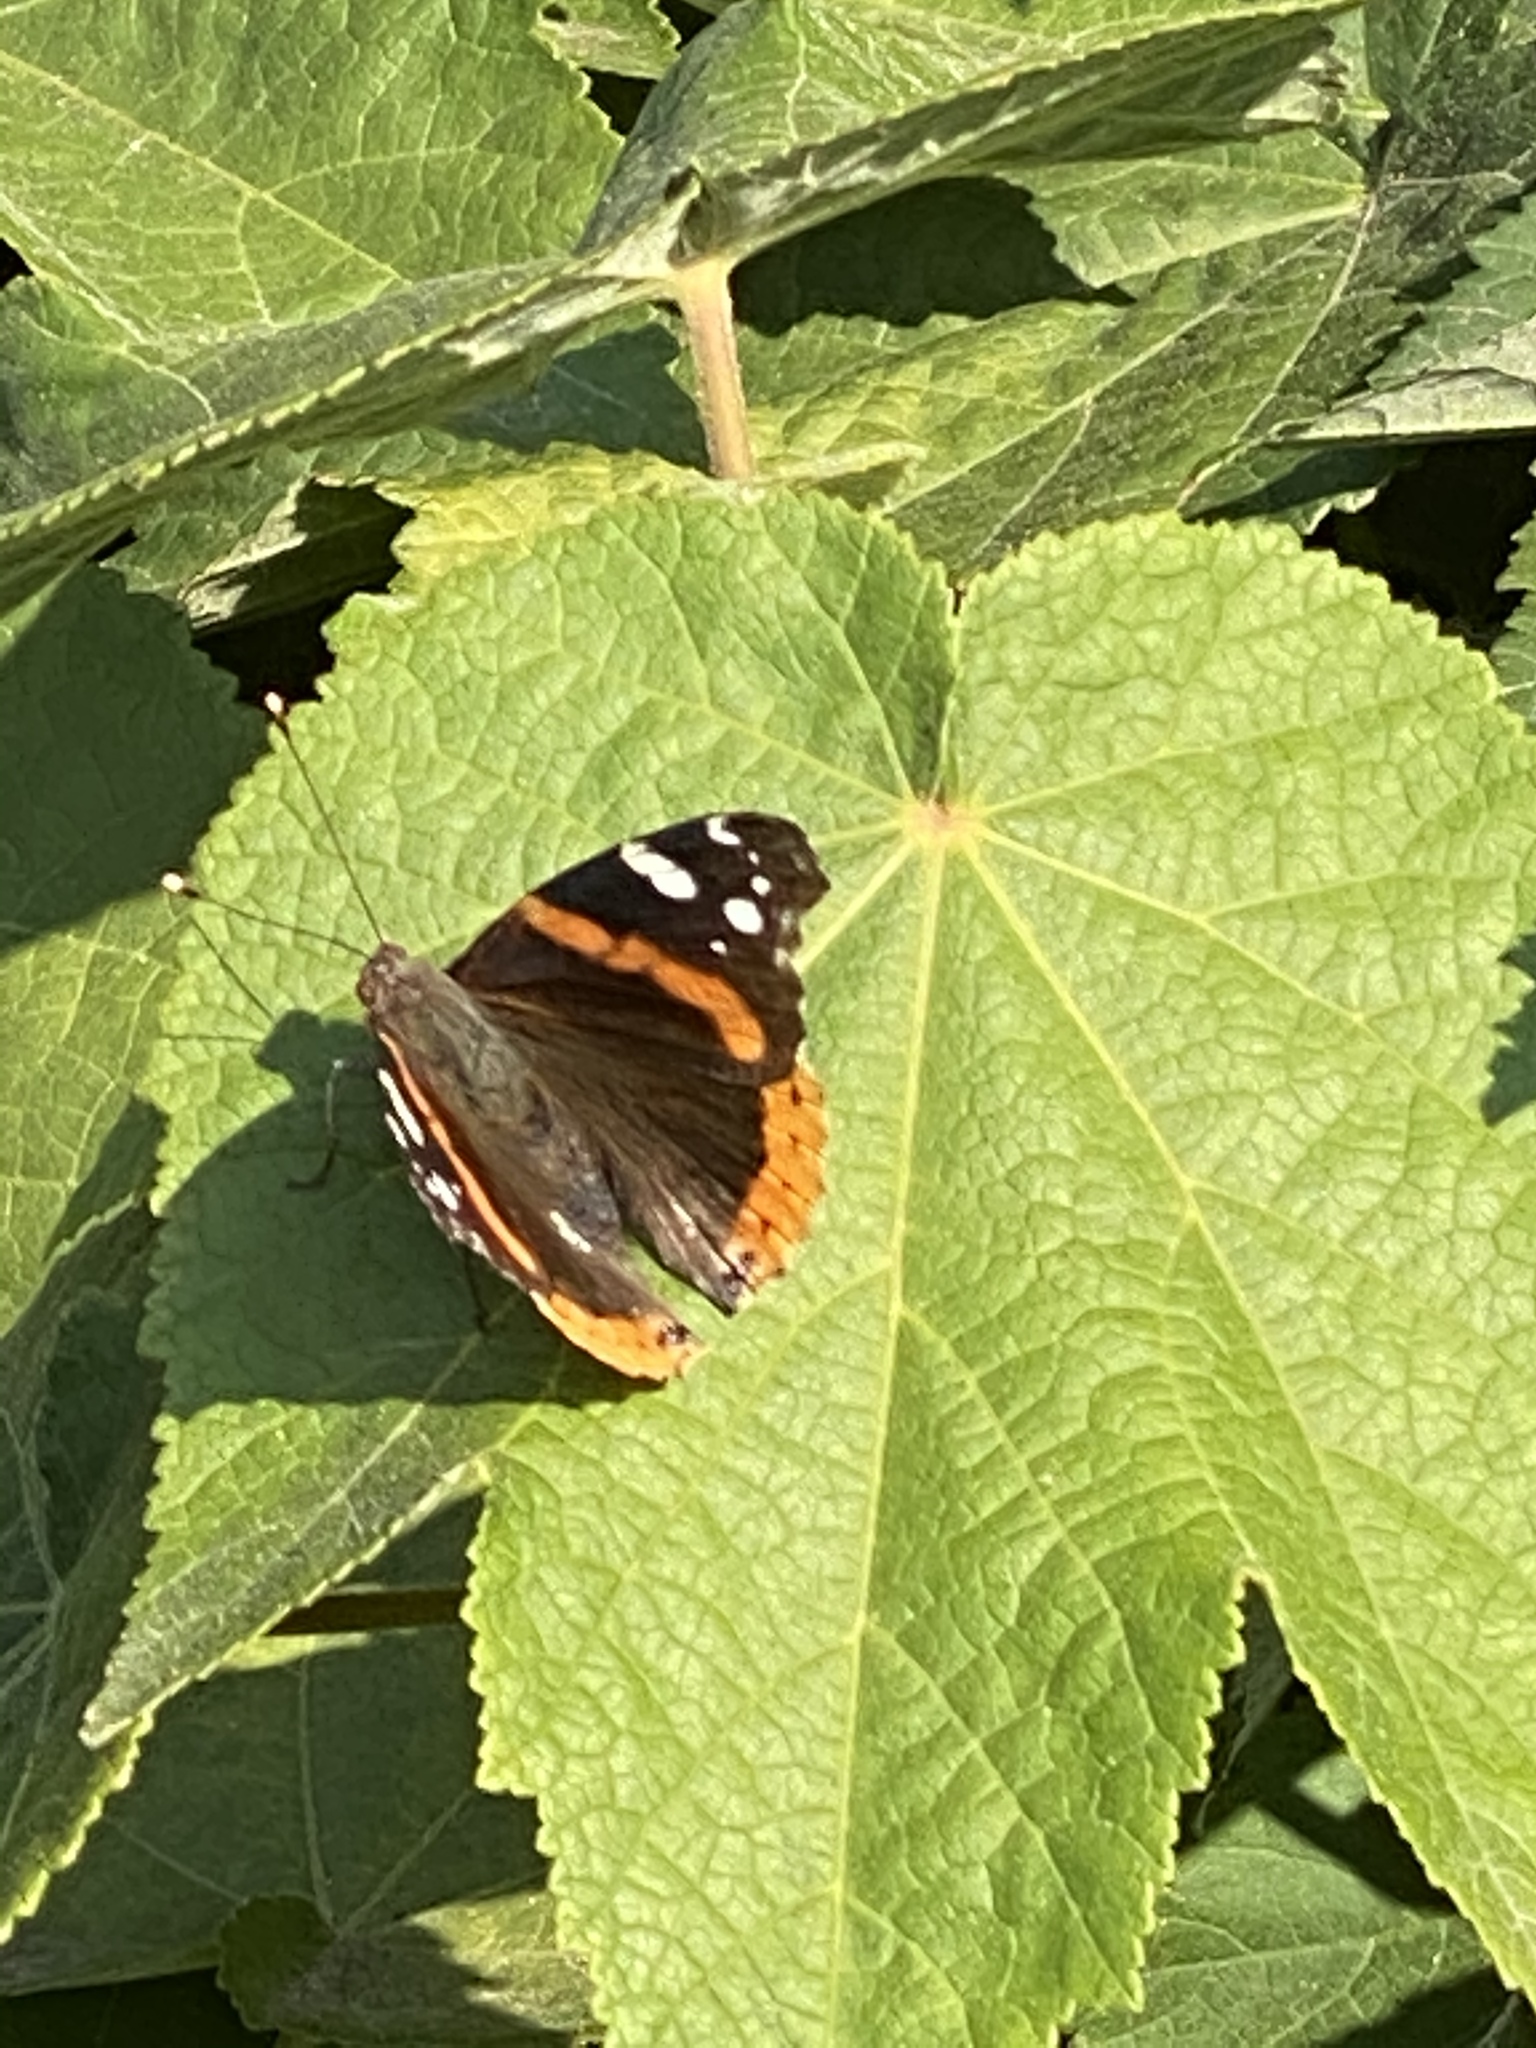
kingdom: Animalia
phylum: Arthropoda
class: Insecta
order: Lepidoptera
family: Nymphalidae
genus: Vanessa
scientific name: Vanessa atalanta
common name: Red admiral
